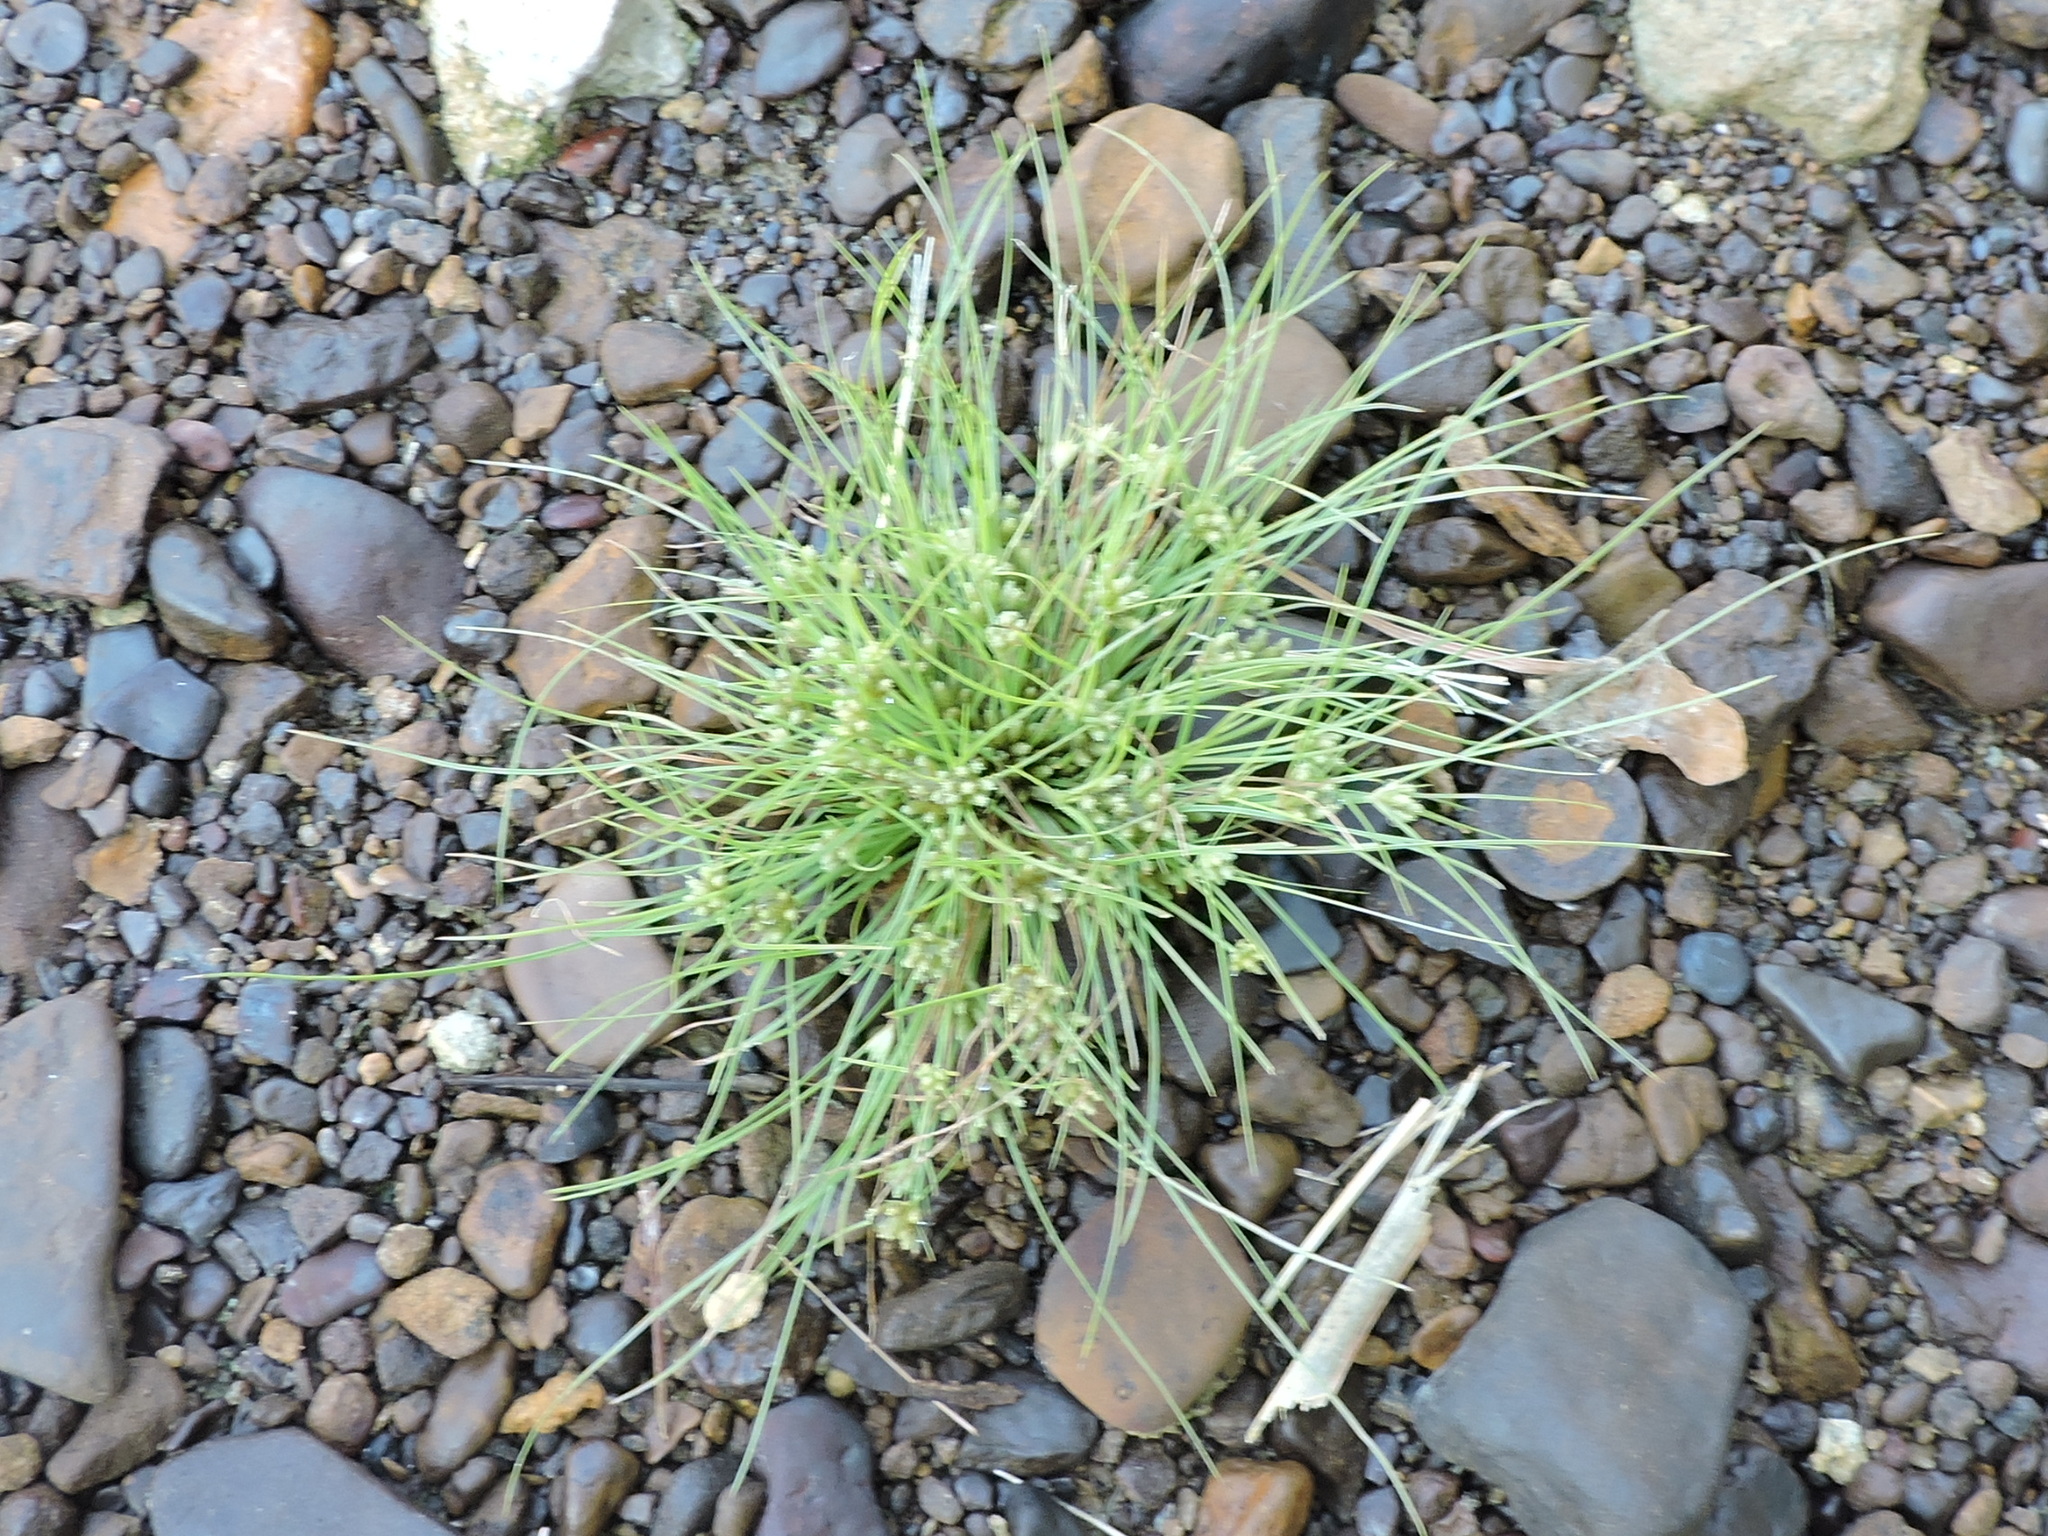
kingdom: Plantae
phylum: Tracheophyta
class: Liliopsida
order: Poales
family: Cyperaceae
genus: Fimbristylis
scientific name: Fimbristylis vahlii
